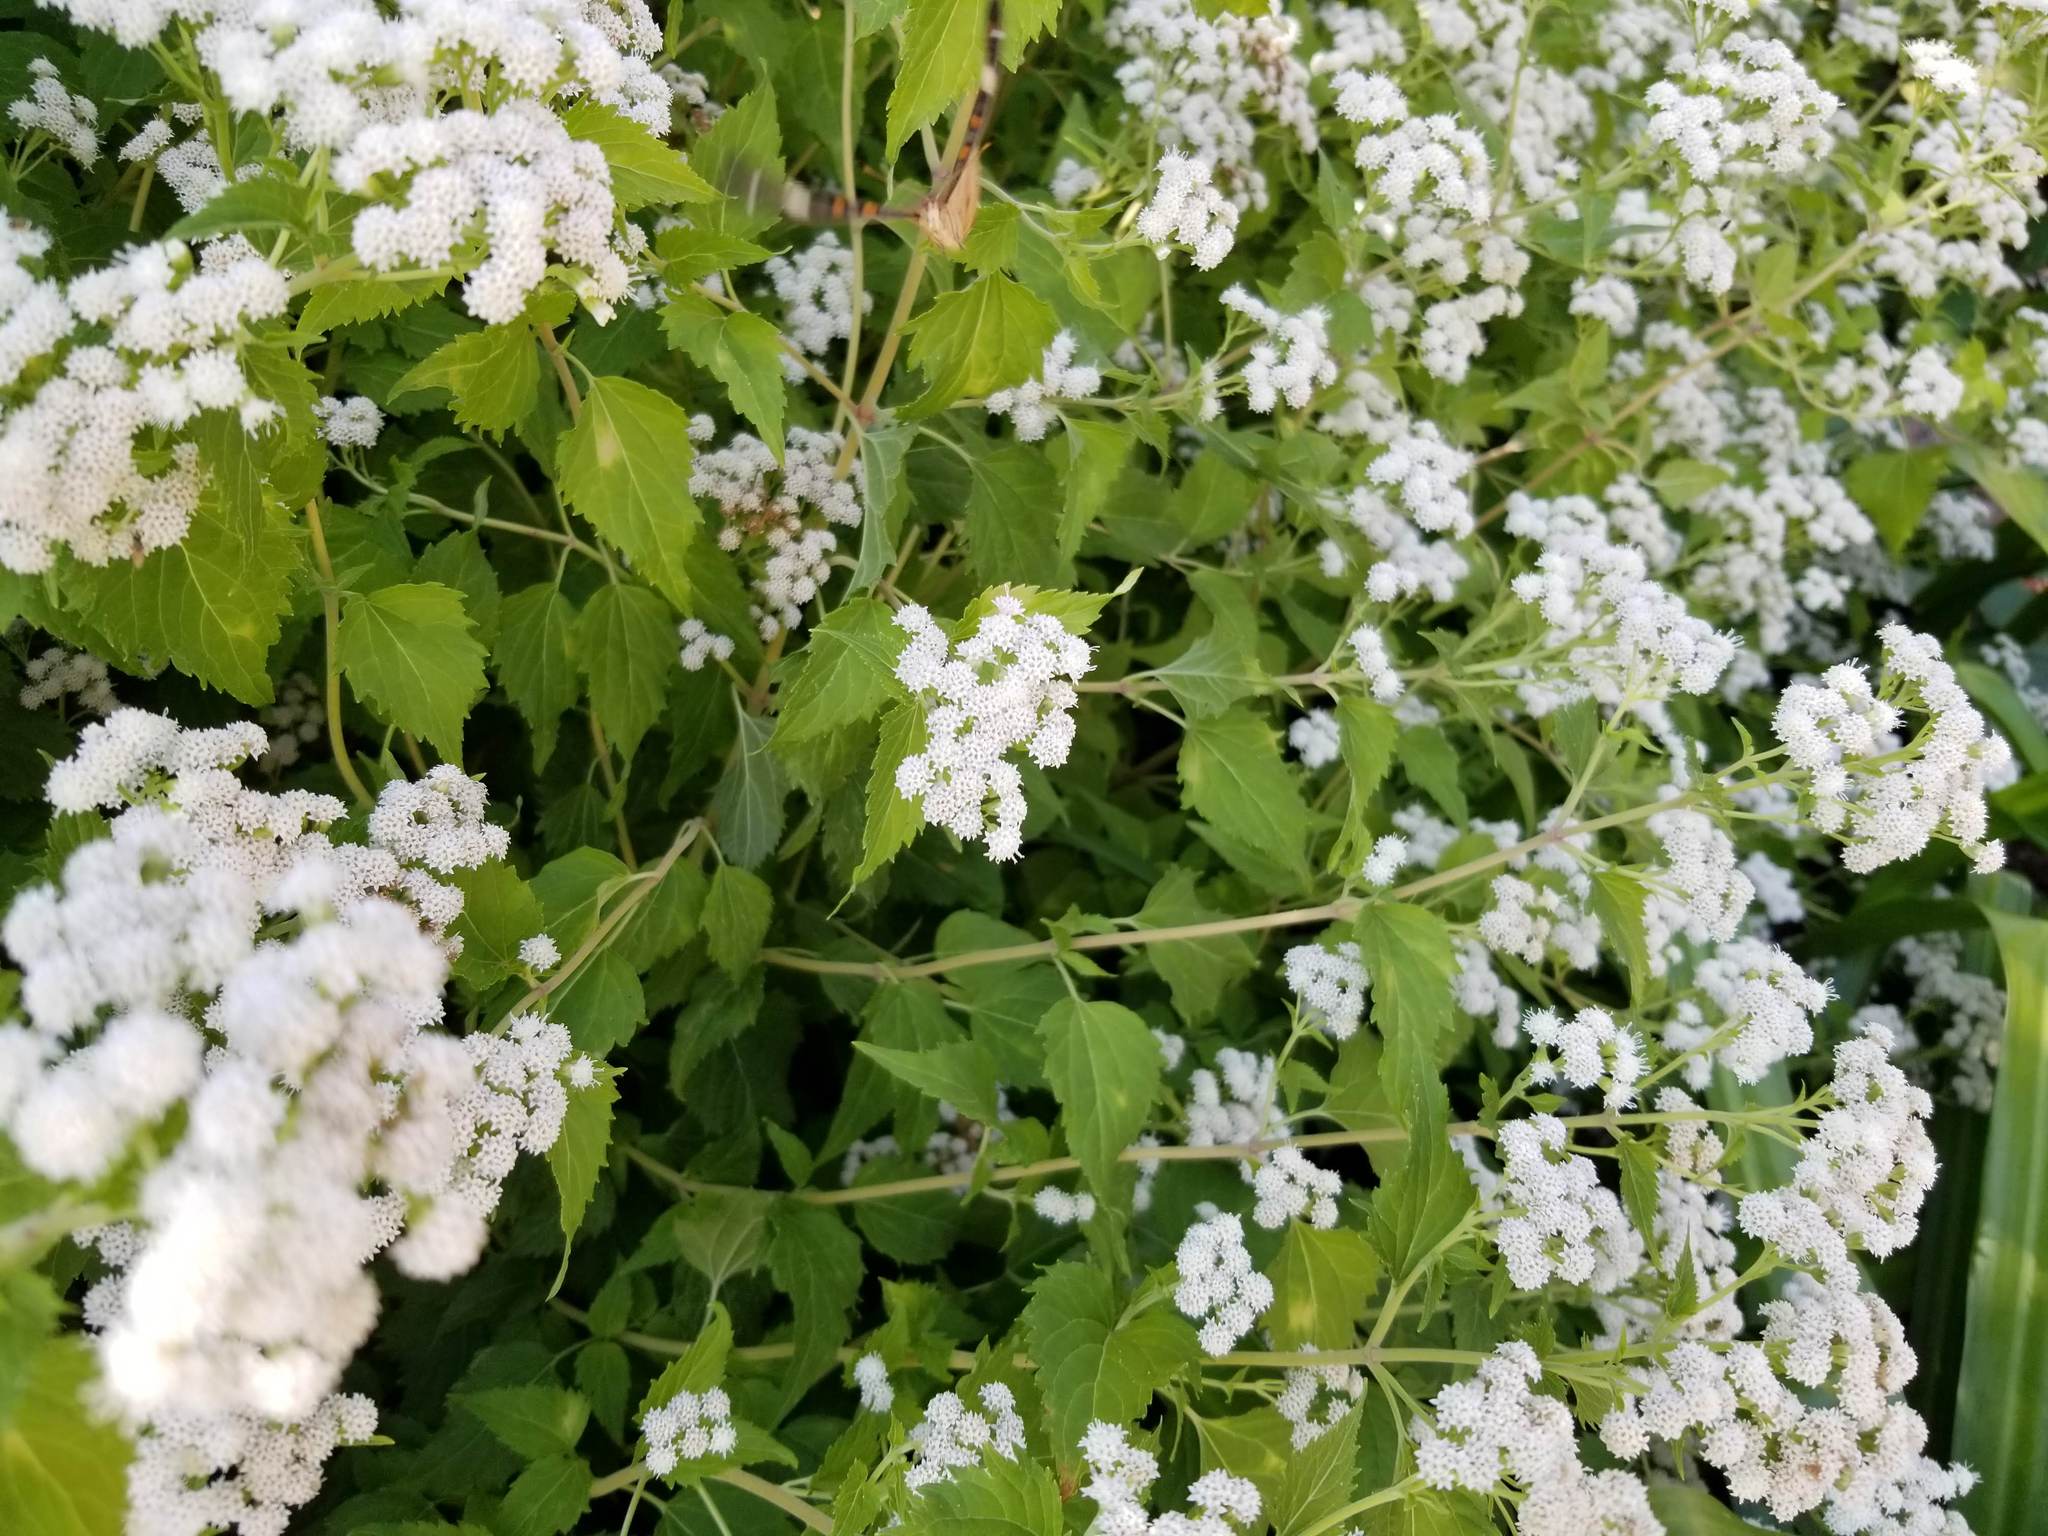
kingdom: Plantae
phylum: Tracheophyta
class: Magnoliopsida
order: Asterales
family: Asteraceae
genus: Ageratina
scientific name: Ageratina altissima
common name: White snakeroot
